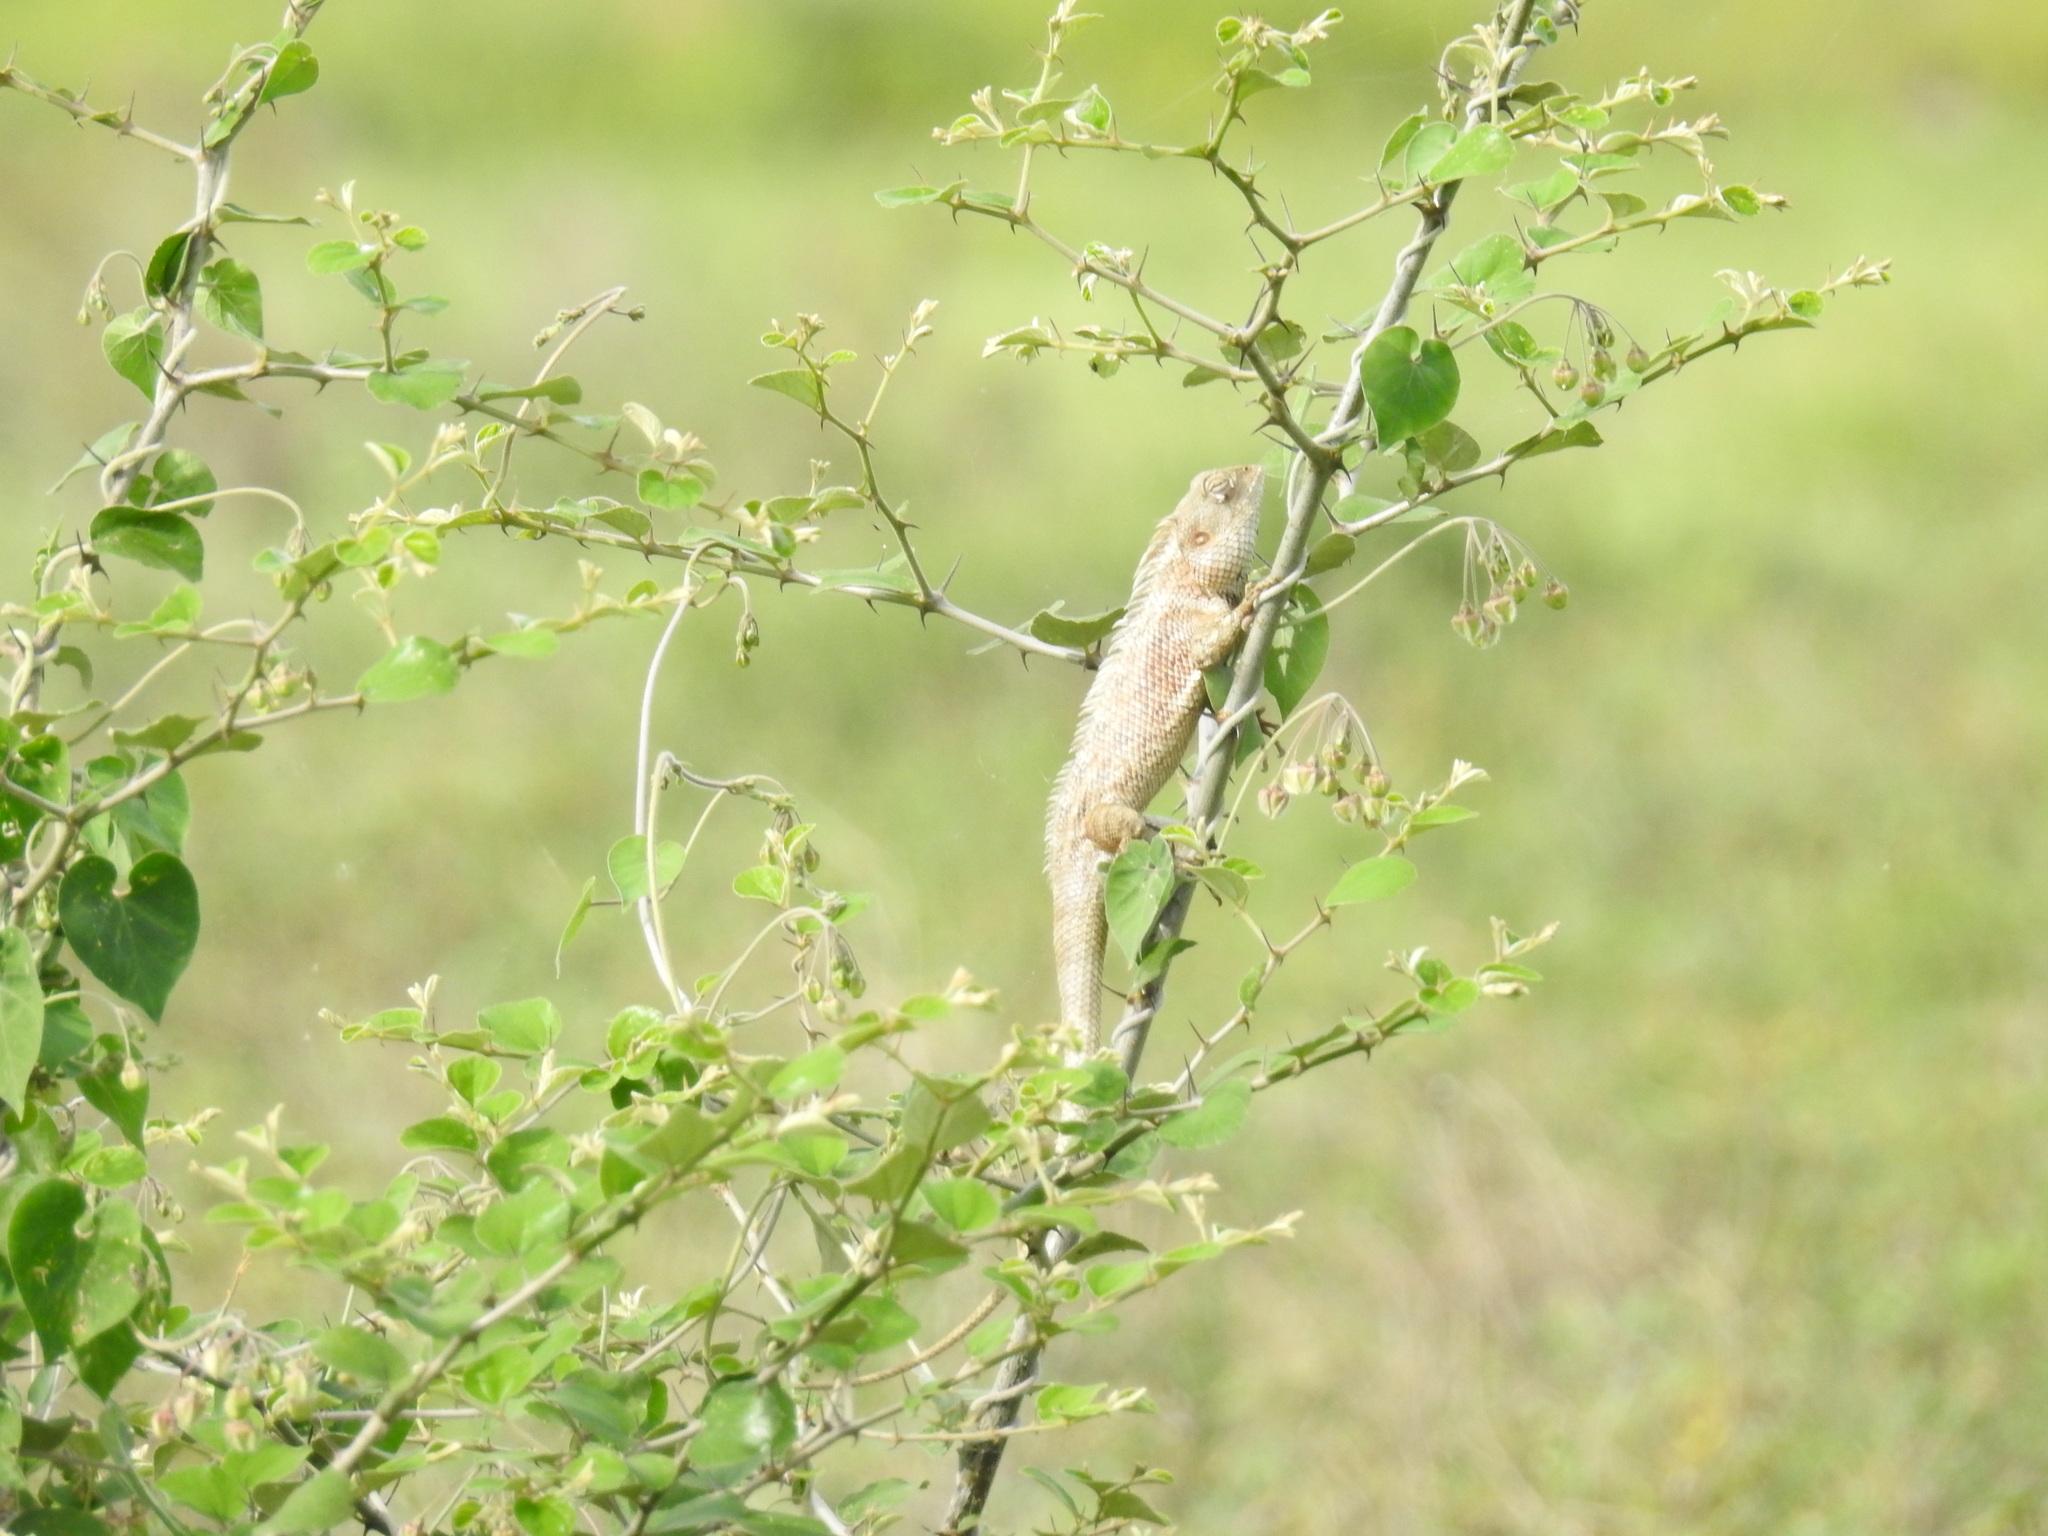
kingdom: Animalia
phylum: Chordata
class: Squamata
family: Agamidae
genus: Calotes
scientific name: Calotes versicolor
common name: Oriental garden lizard
